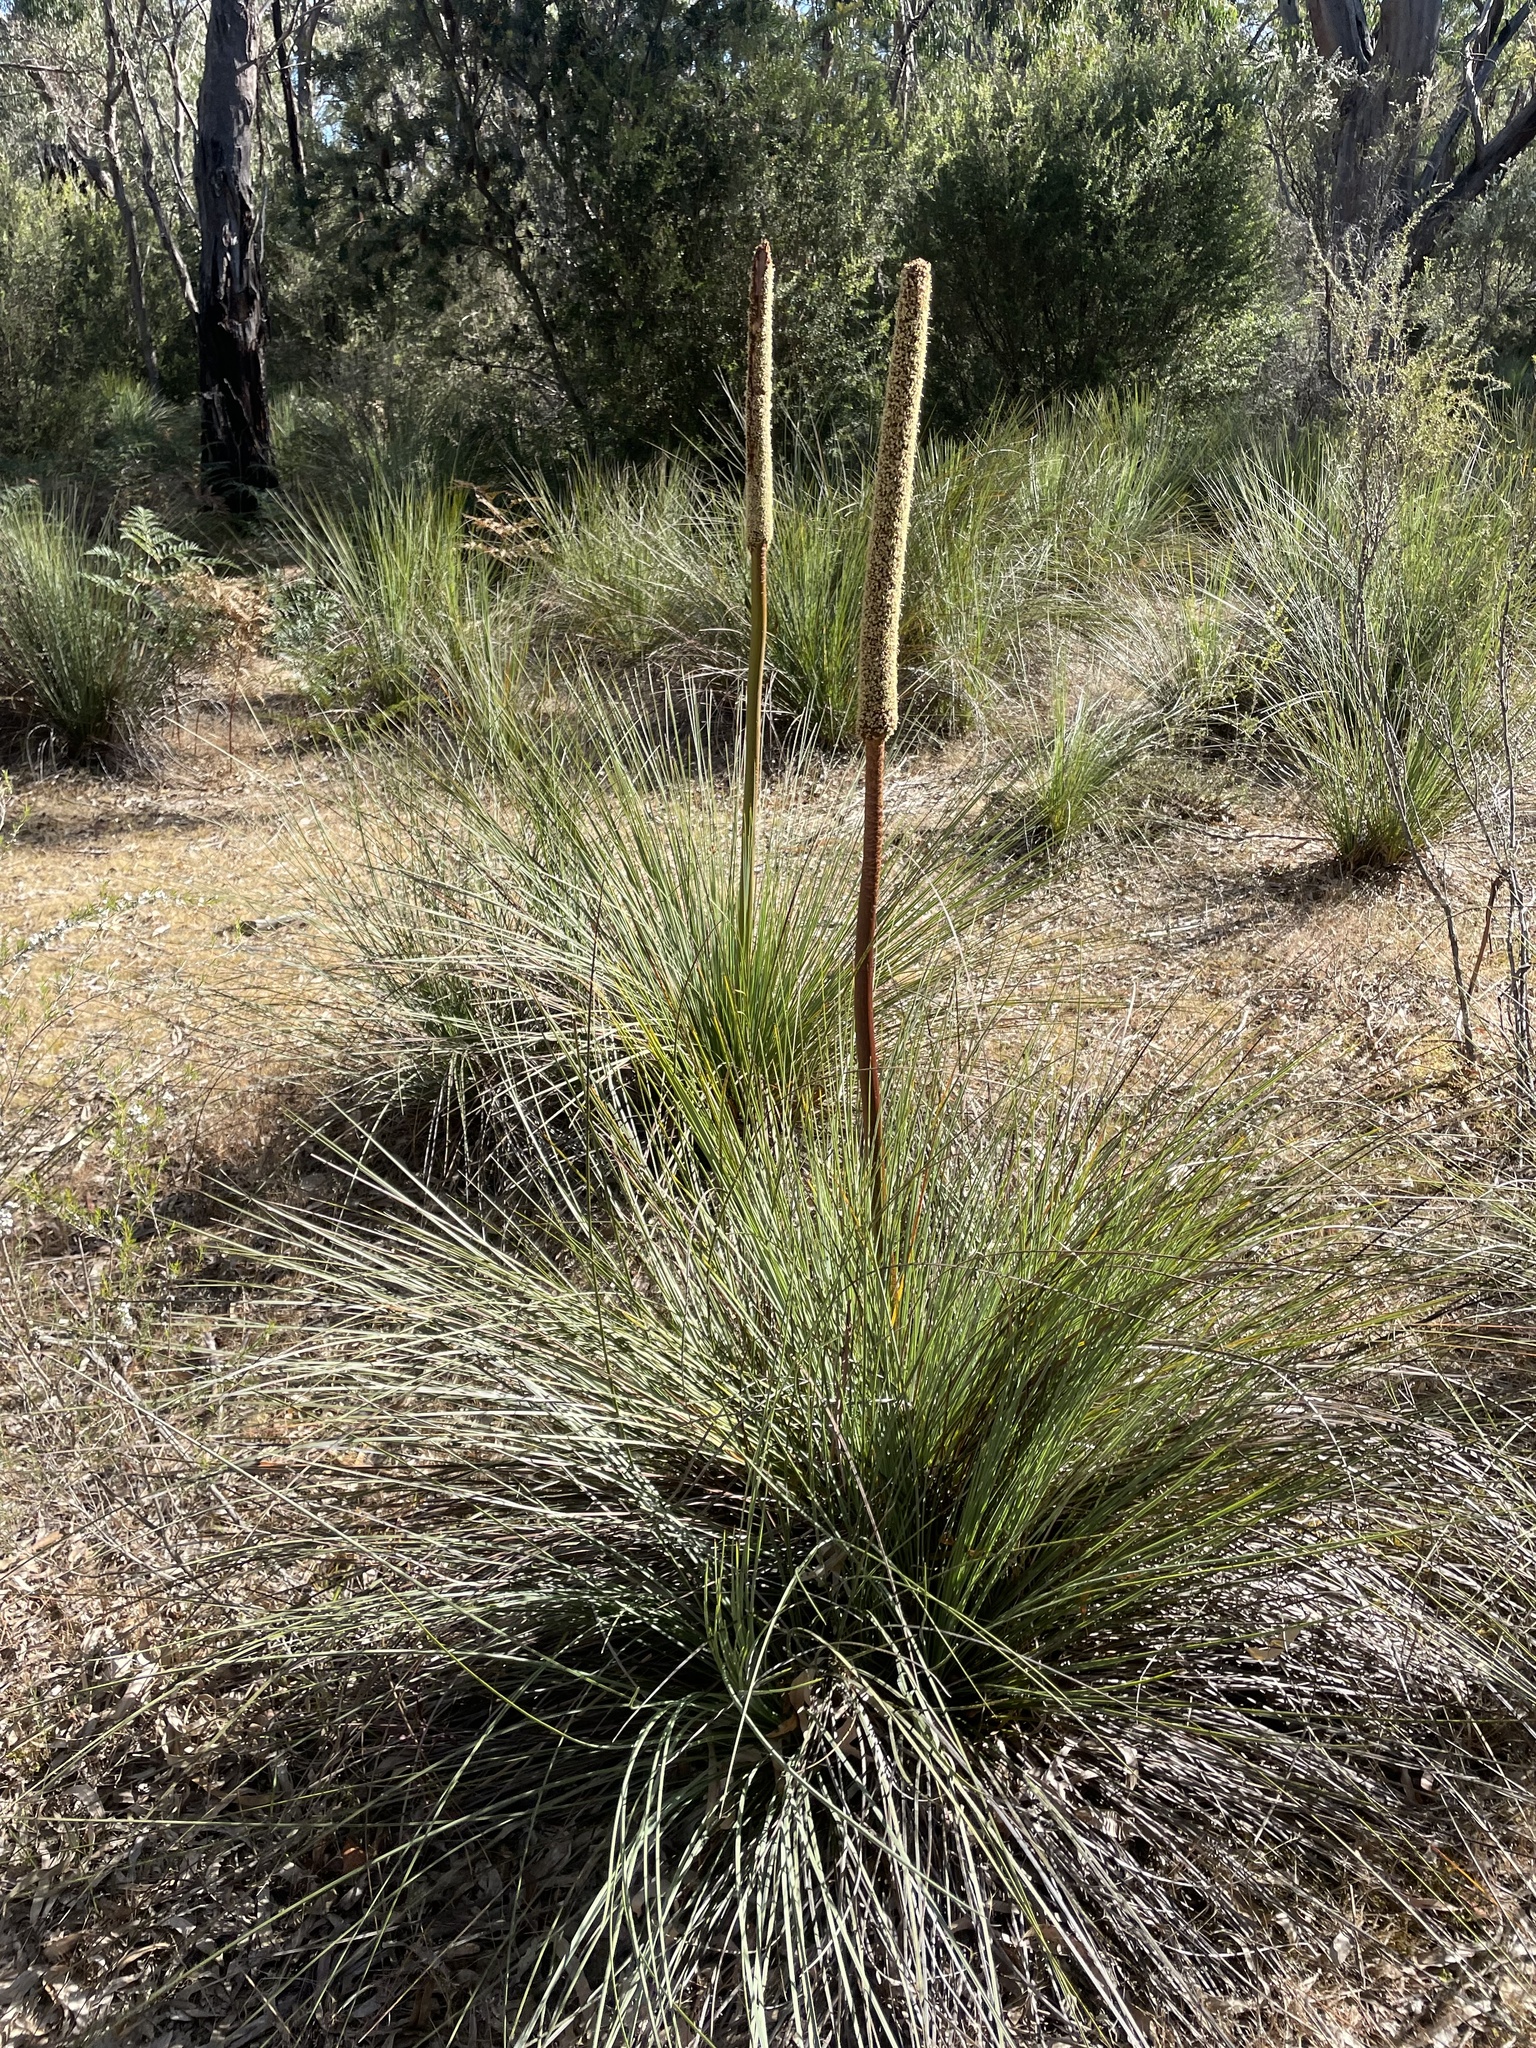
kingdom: Plantae
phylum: Tracheophyta
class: Liliopsida
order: Asparagales
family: Asphodelaceae
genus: Xanthorrhoea
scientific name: Xanthorrhoea caespitosa
